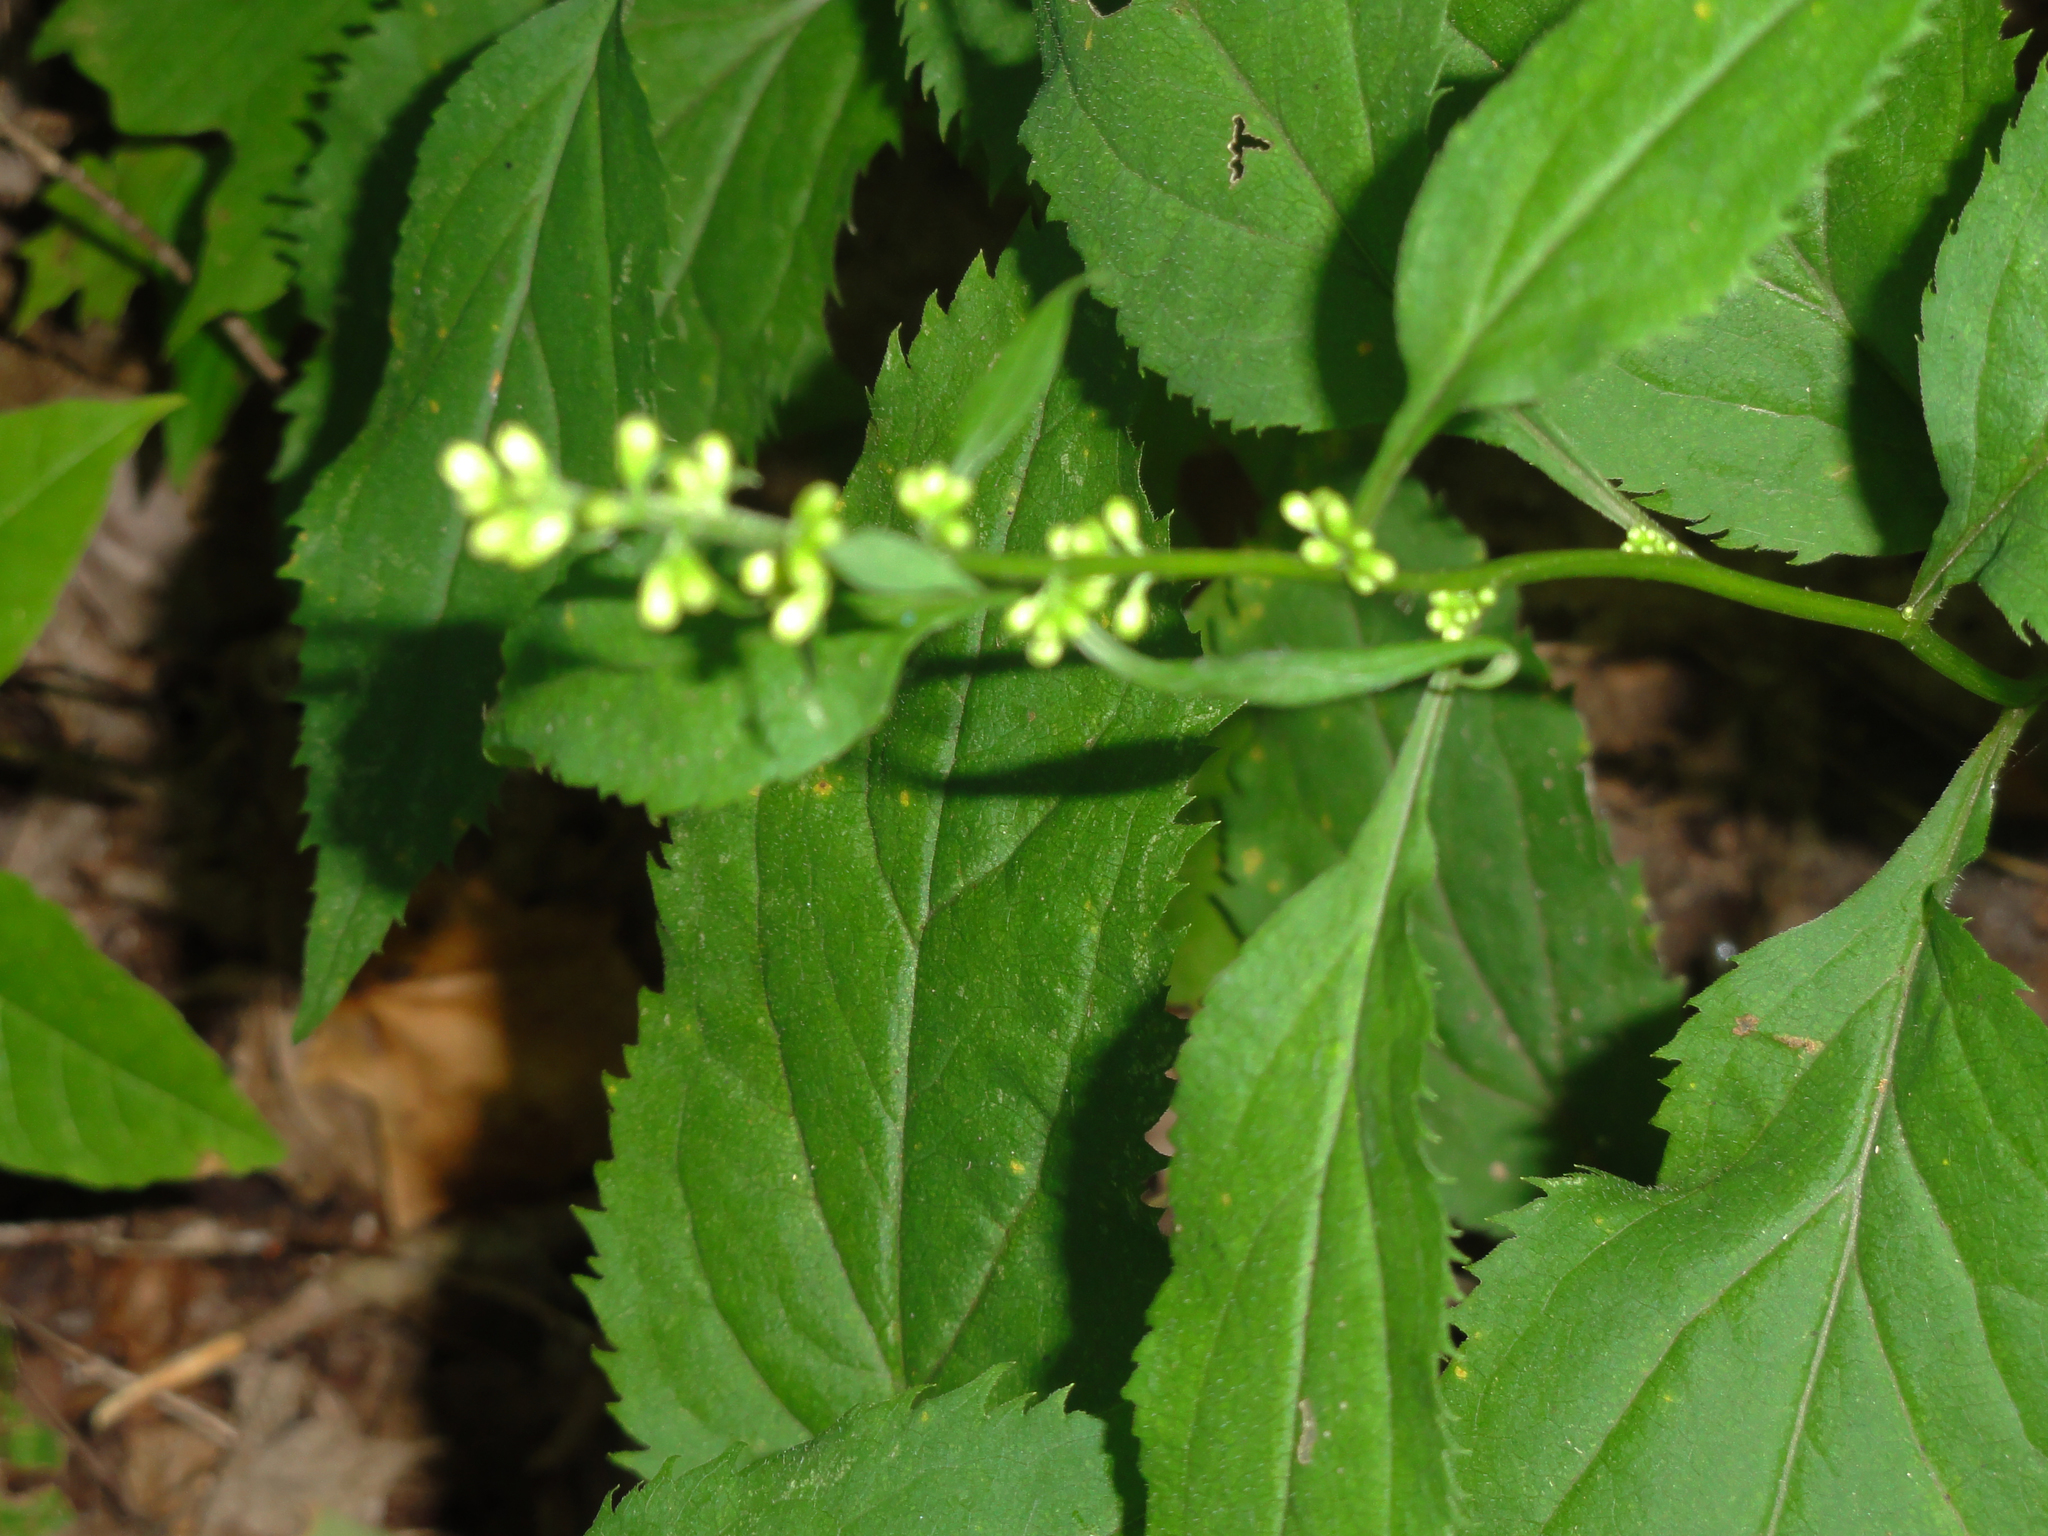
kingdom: Plantae
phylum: Tracheophyta
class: Magnoliopsida
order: Asterales
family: Asteraceae
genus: Solidago
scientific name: Solidago flexicaulis
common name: Zig-zag goldenrod
